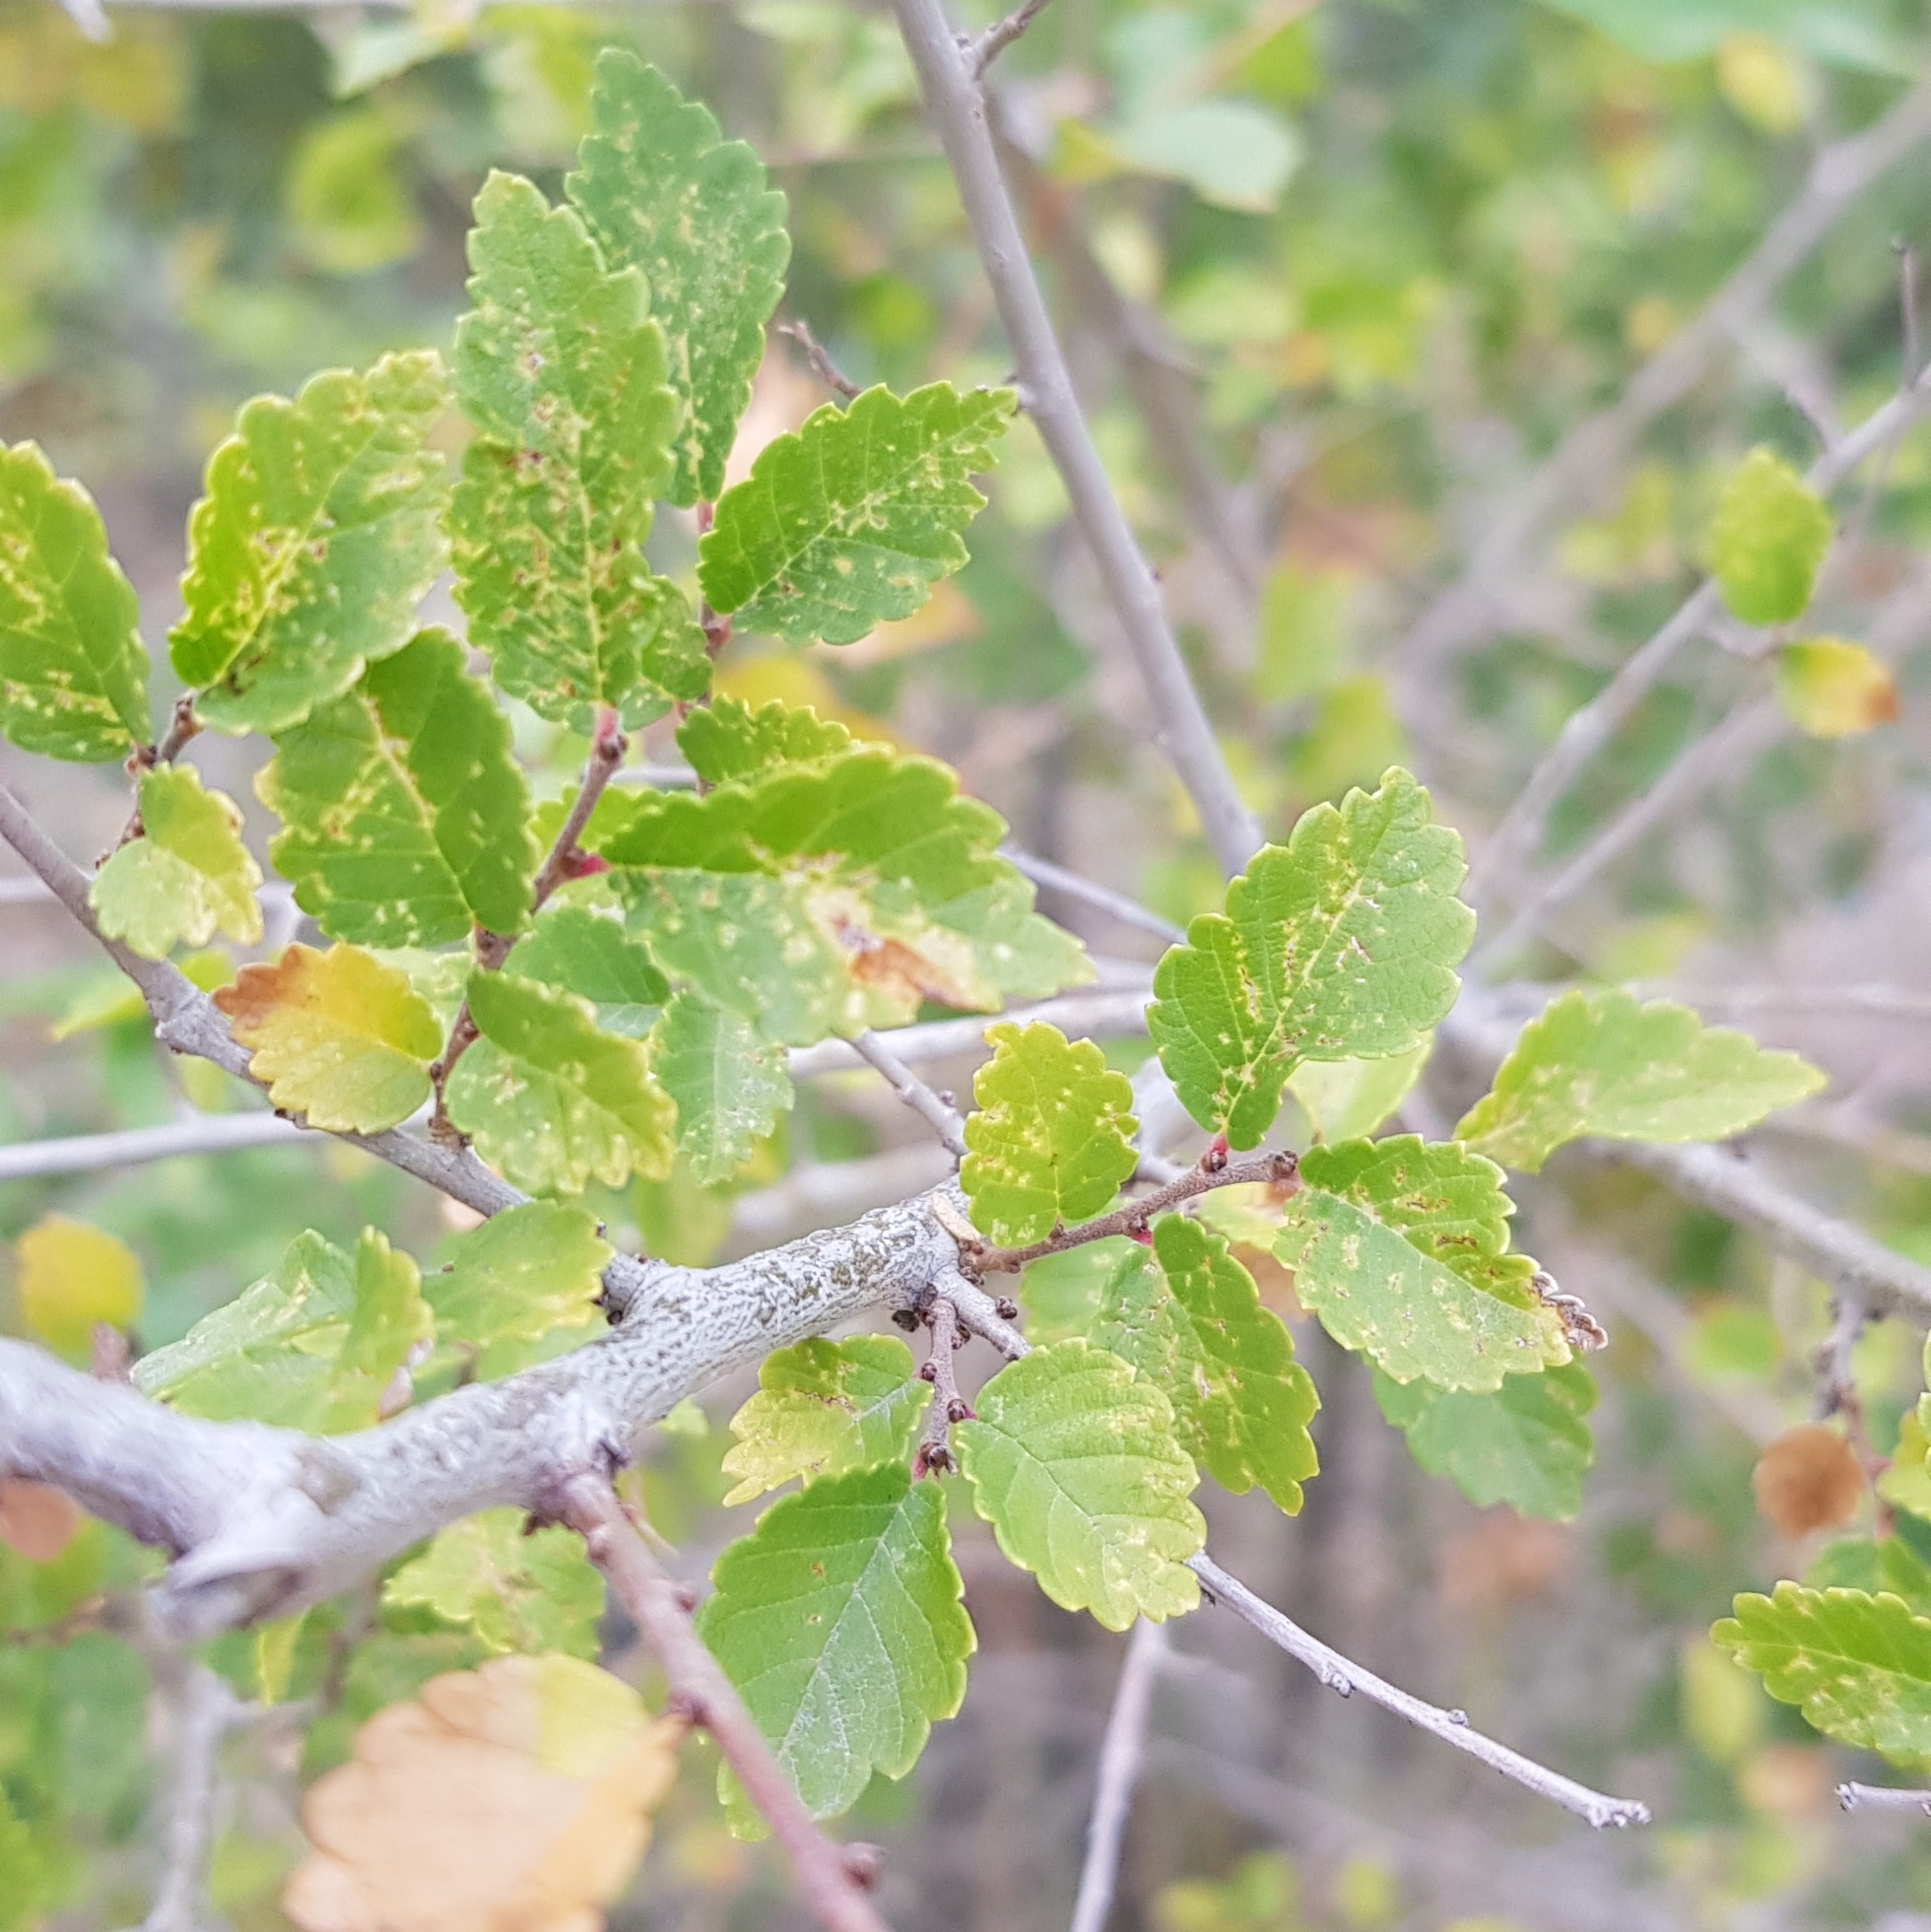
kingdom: Plantae
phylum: Tracheophyta
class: Magnoliopsida
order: Rosales
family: Ulmaceae
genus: Ulmus
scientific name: Ulmus pumila
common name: Siberian elm
